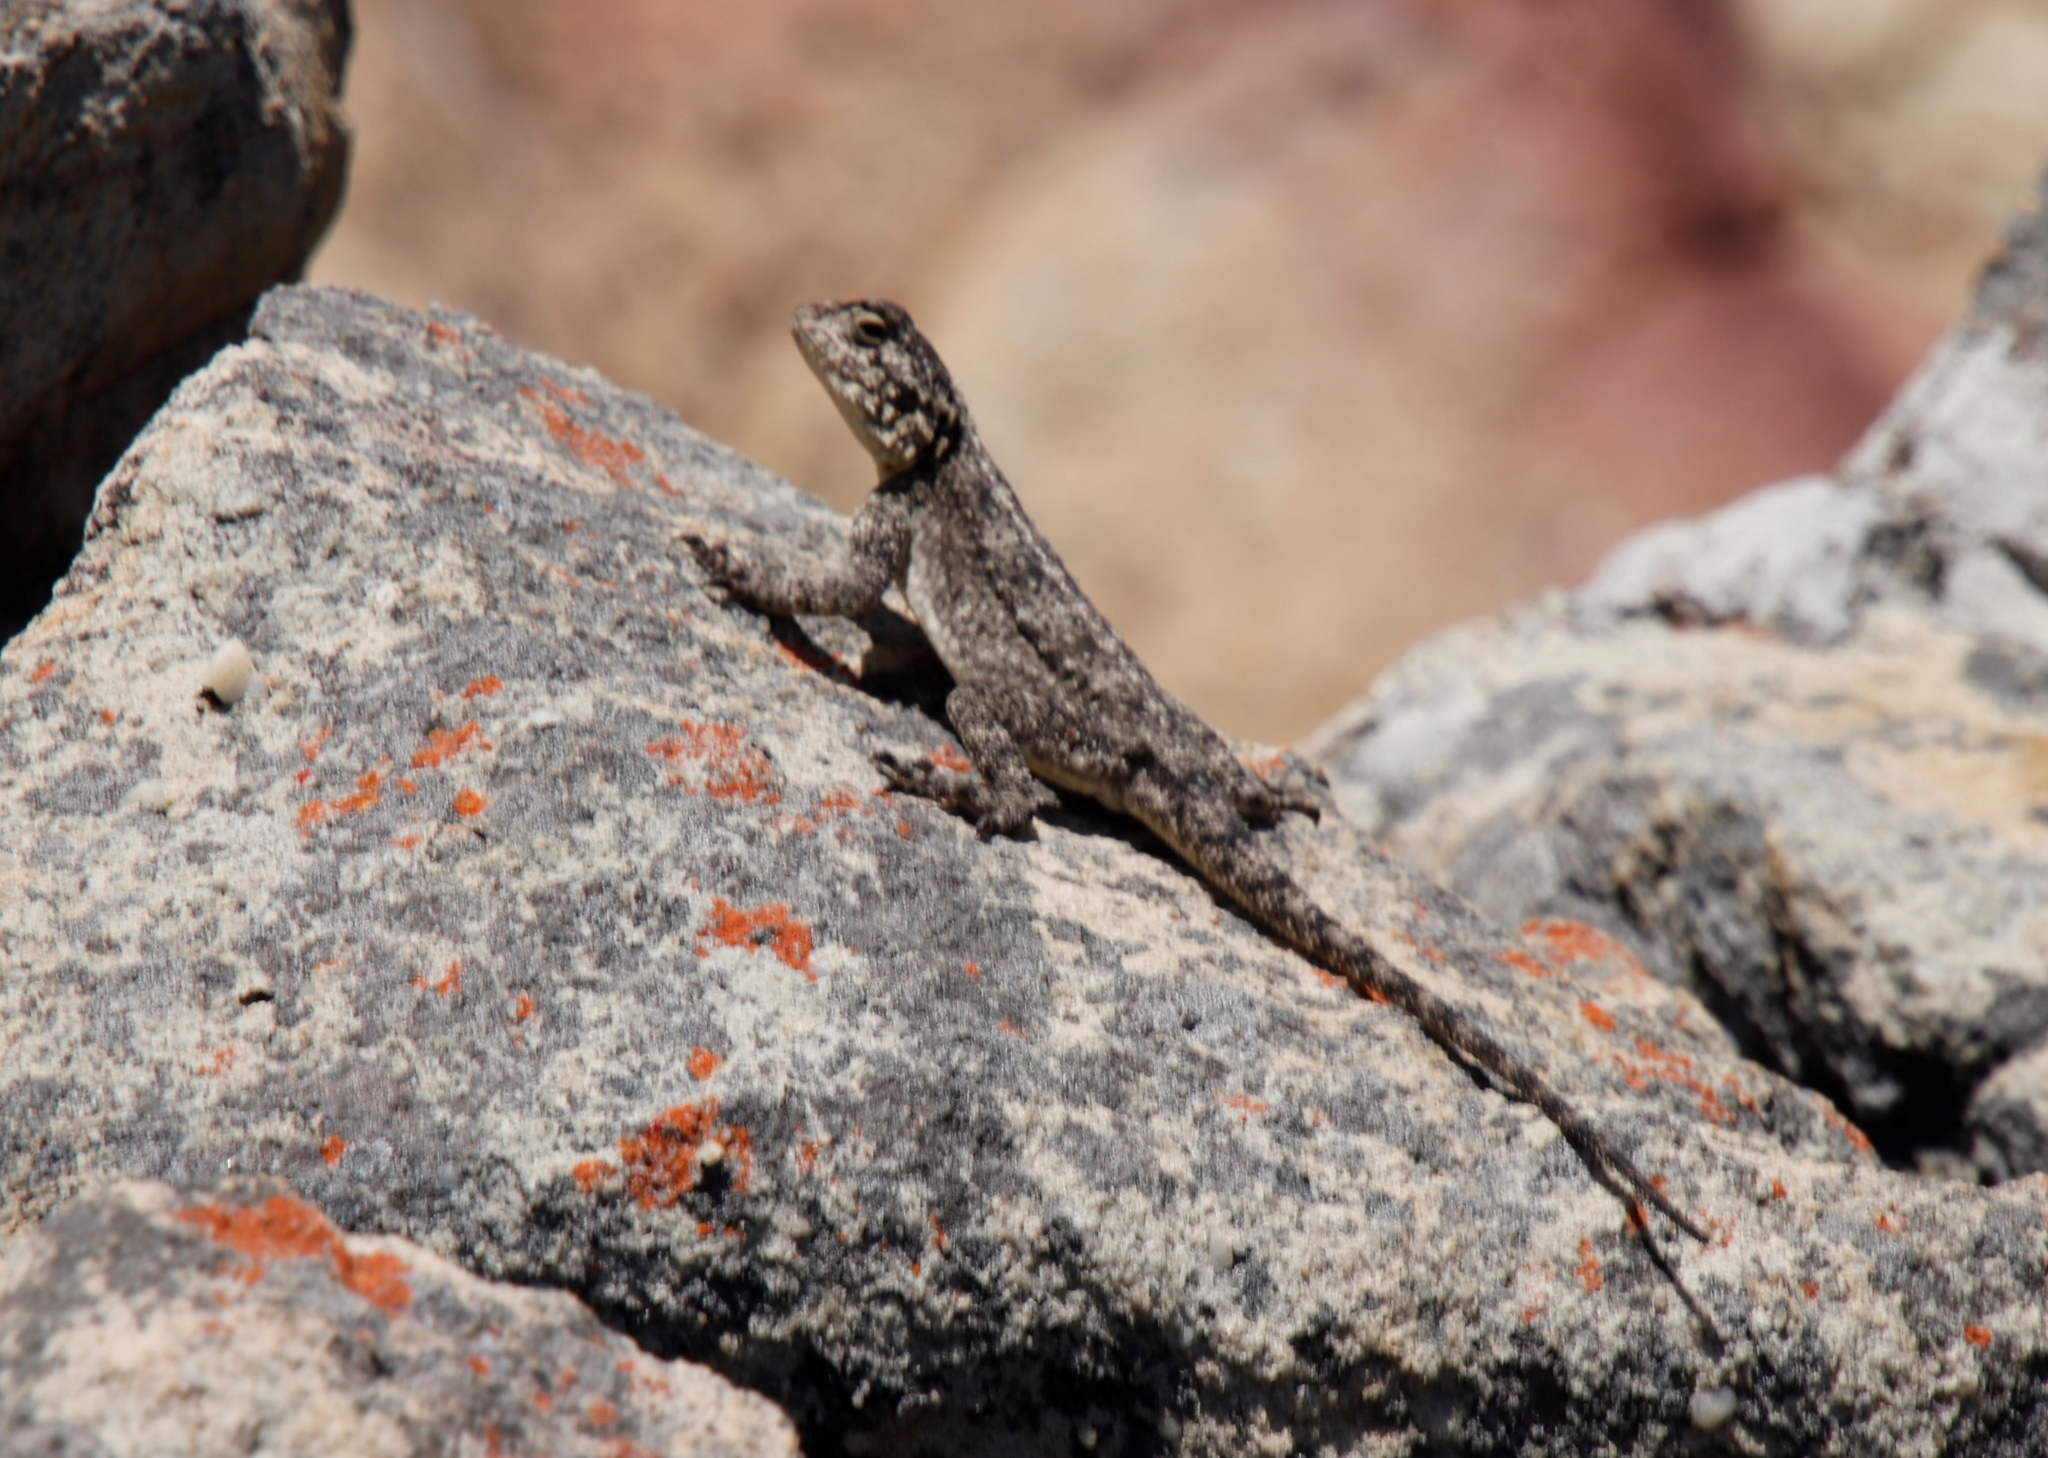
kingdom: Animalia
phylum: Chordata
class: Squamata
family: Agamidae
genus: Agama
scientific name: Agama atra
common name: Southern african rock agama
